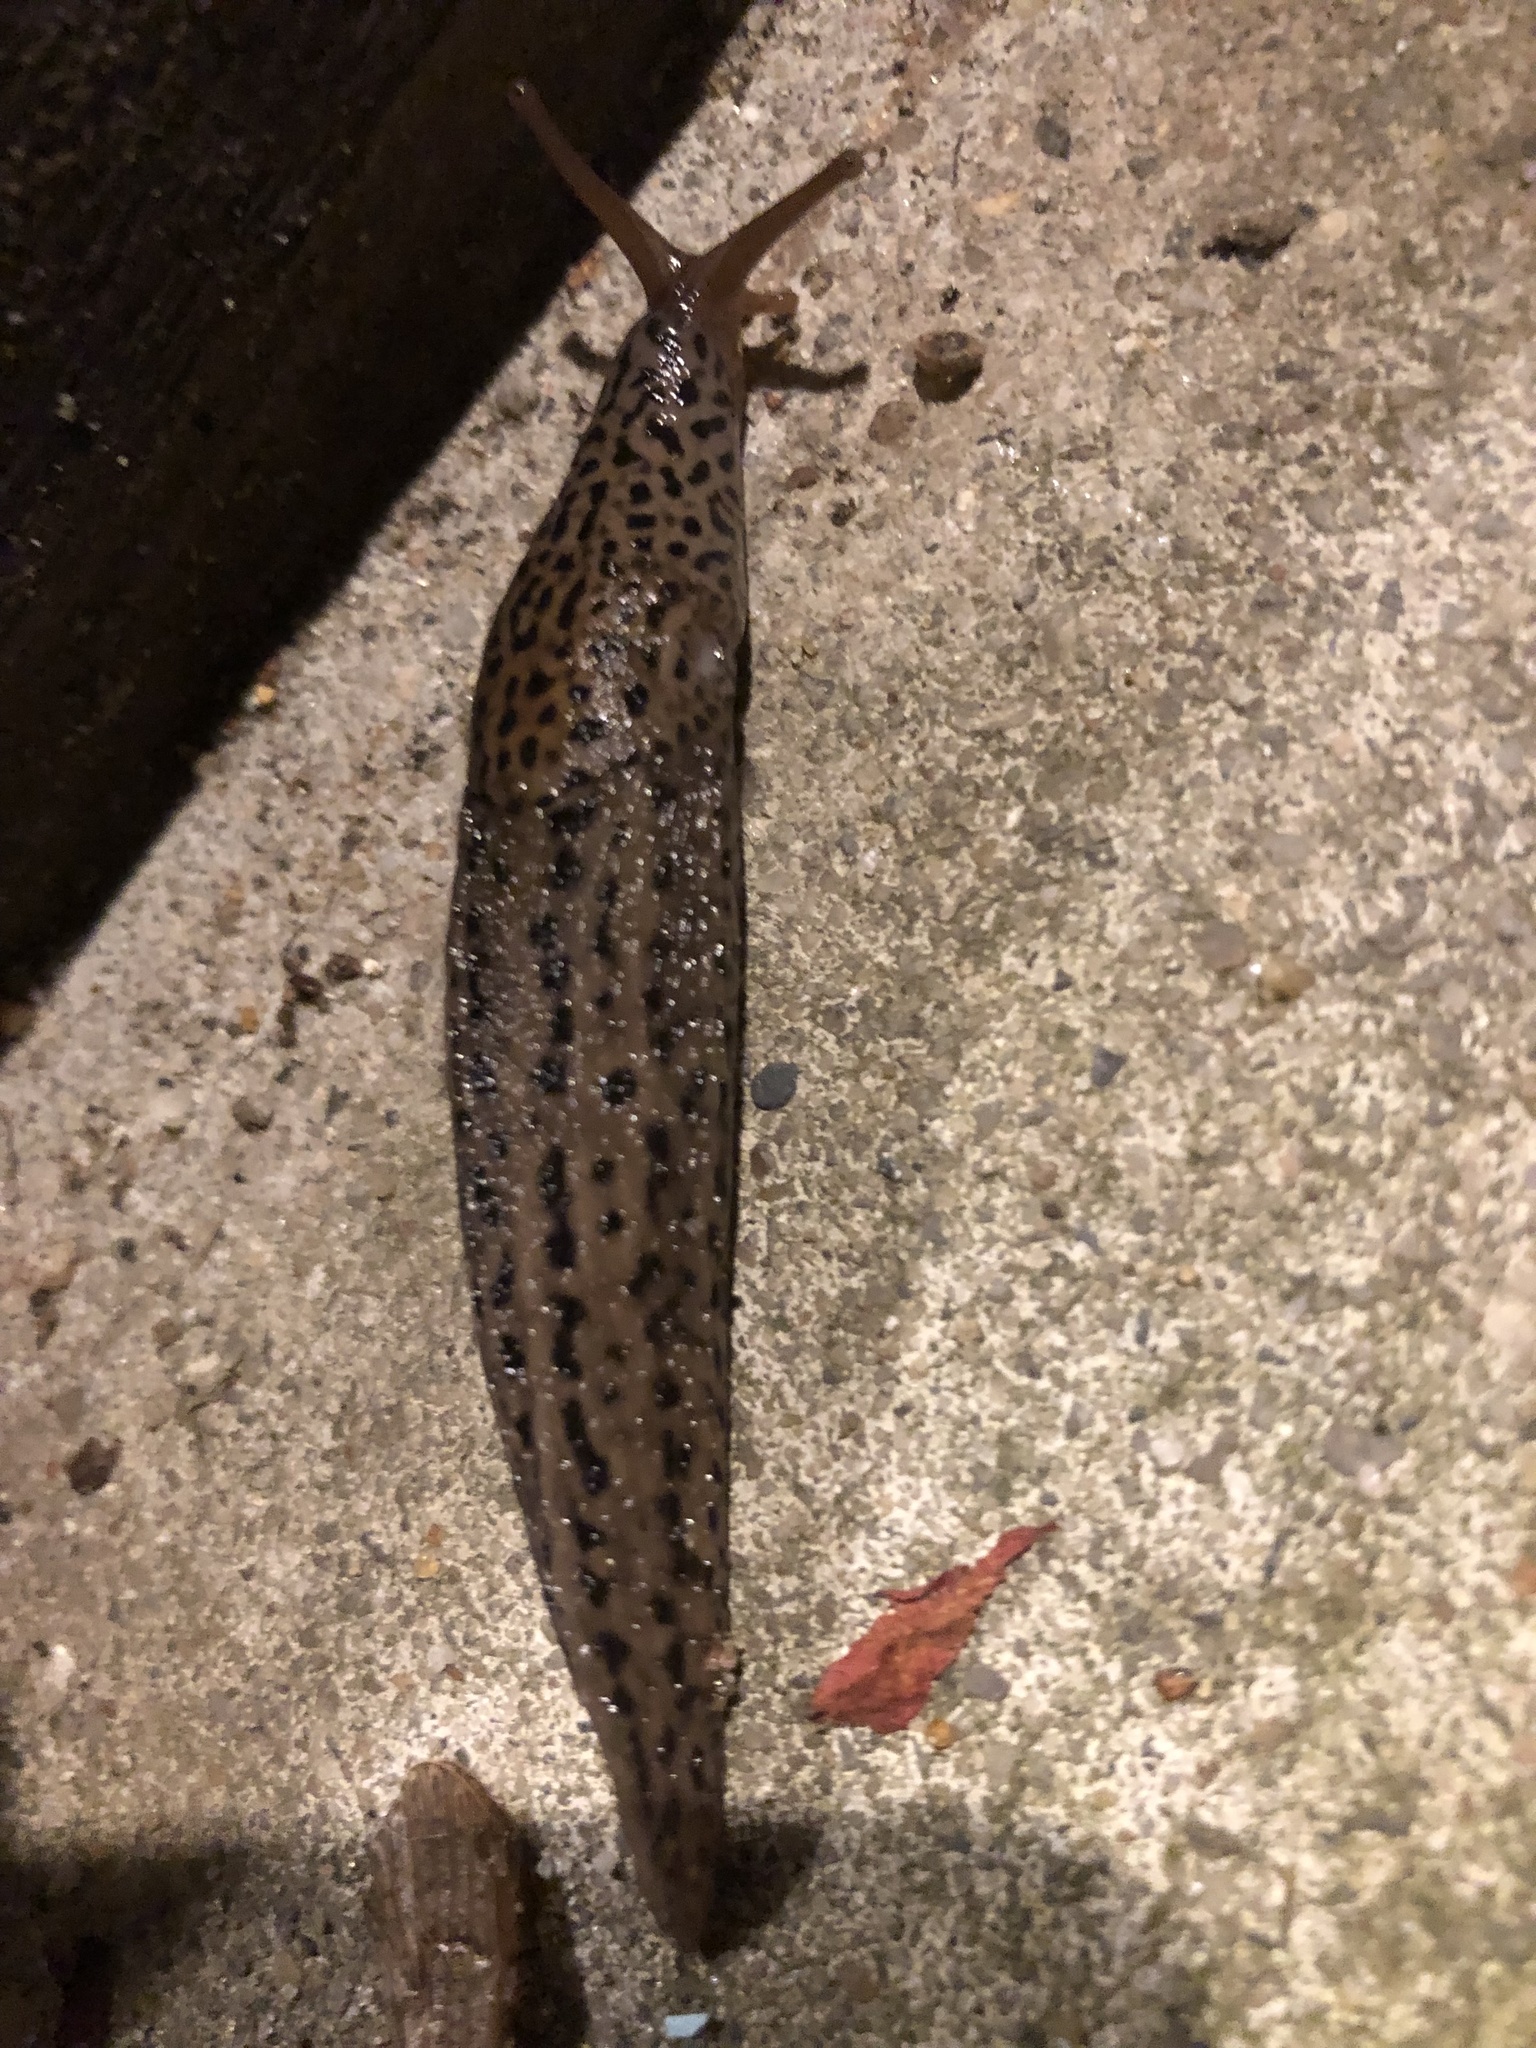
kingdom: Animalia
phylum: Mollusca
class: Gastropoda
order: Stylommatophora
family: Limacidae
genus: Limax
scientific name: Limax maximus
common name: Great grey slug
